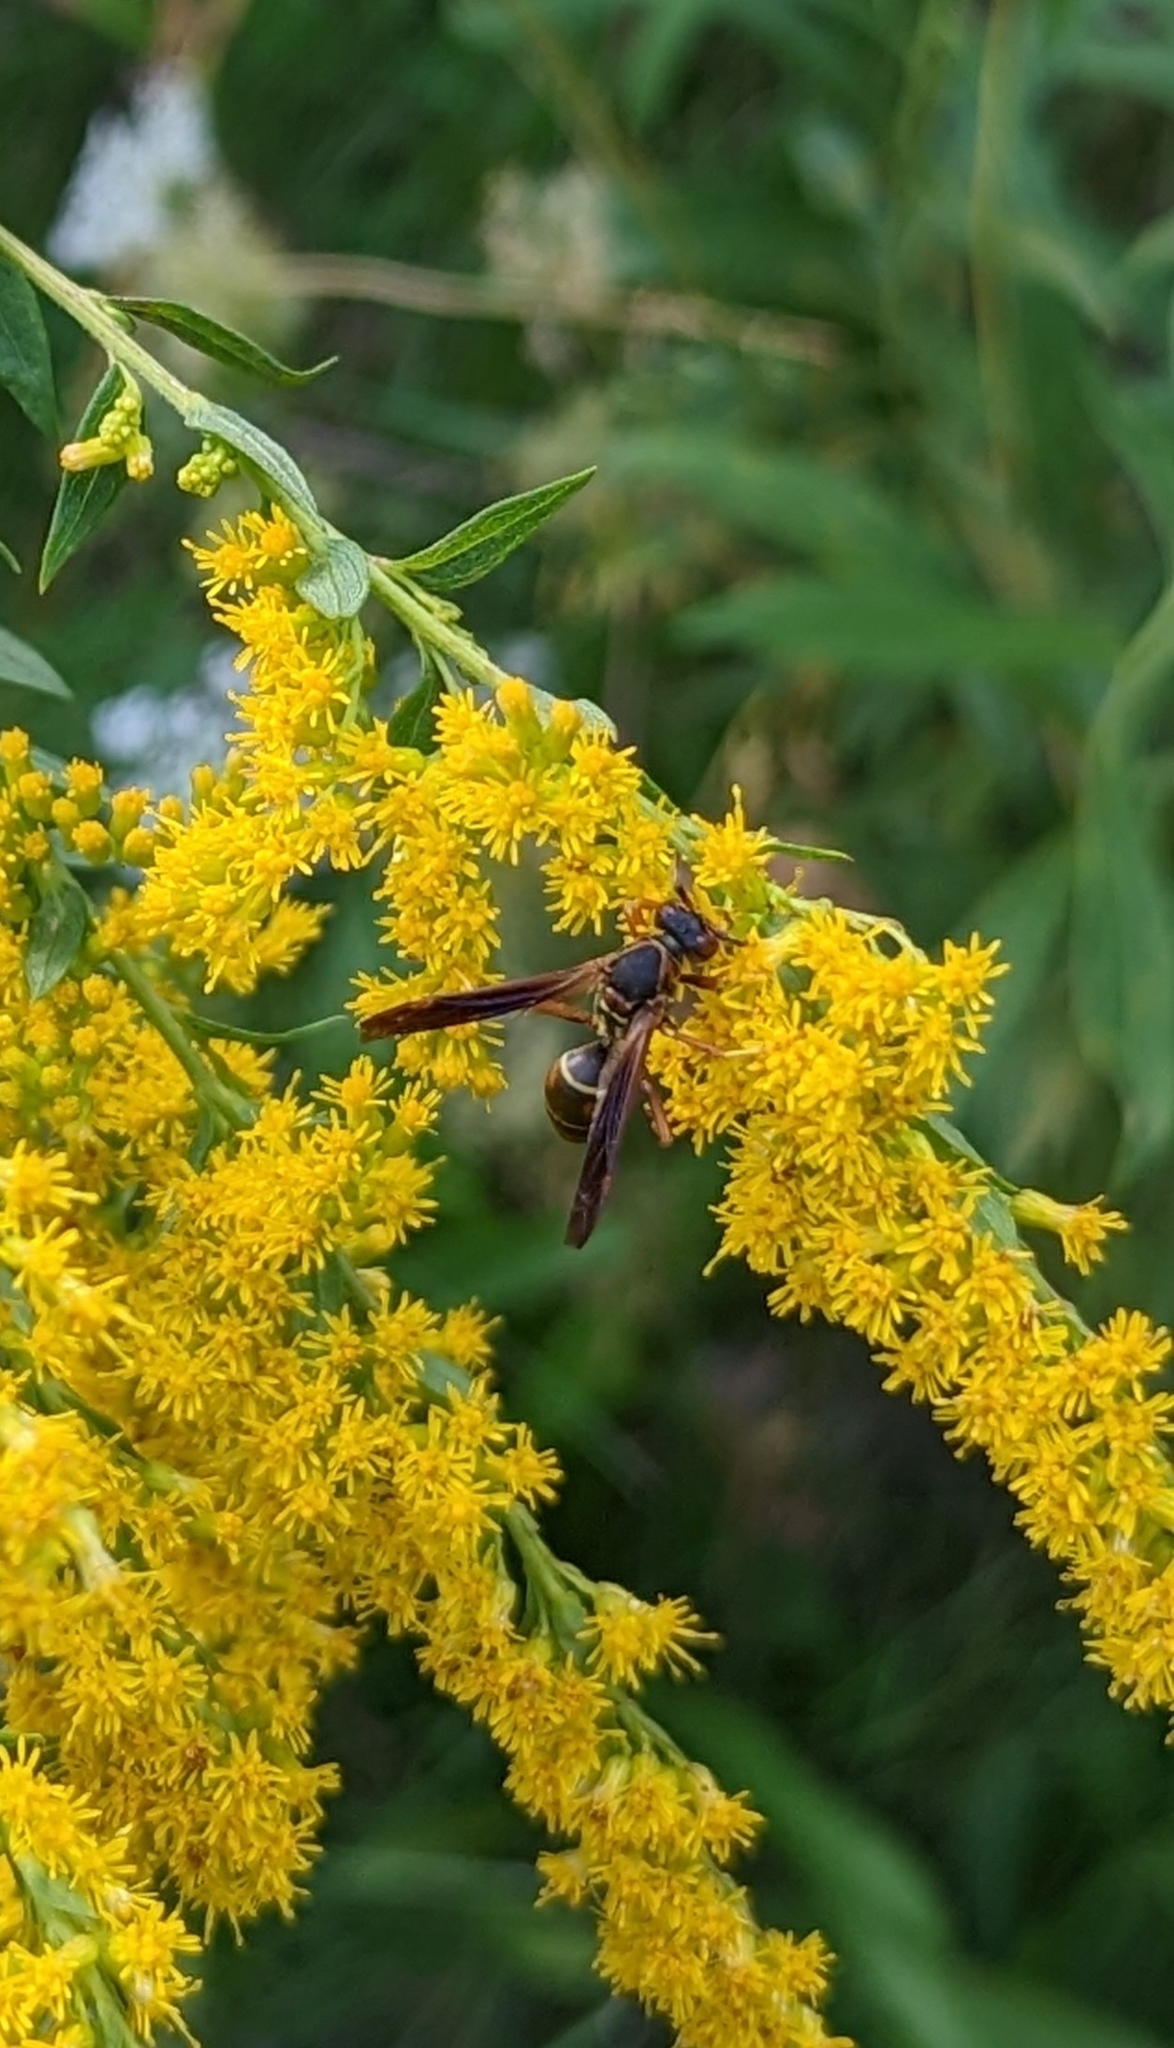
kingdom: Animalia
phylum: Arthropoda
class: Insecta
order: Hymenoptera
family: Eumenidae
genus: Polistes
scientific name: Polistes fuscatus
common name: Dark paper wasp
